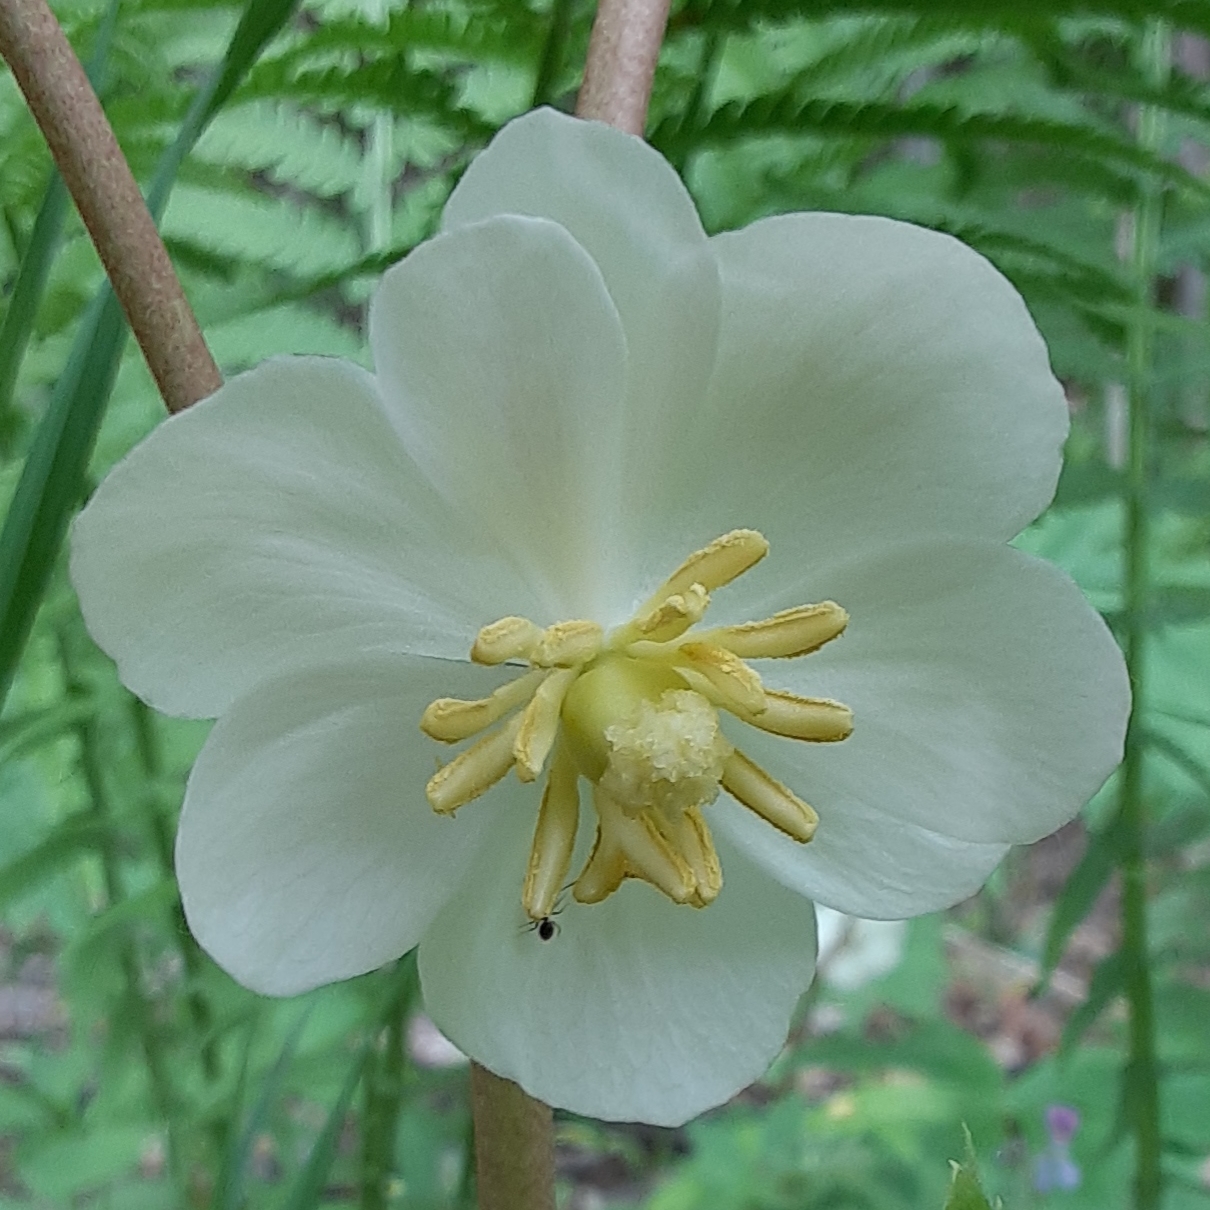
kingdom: Plantae
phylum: Tracheophyta
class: Magnoliopsida
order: Ranunculales
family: Berberidaceae
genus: Podophyllum
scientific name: Podophyllum peltatum
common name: Wild mandrake
